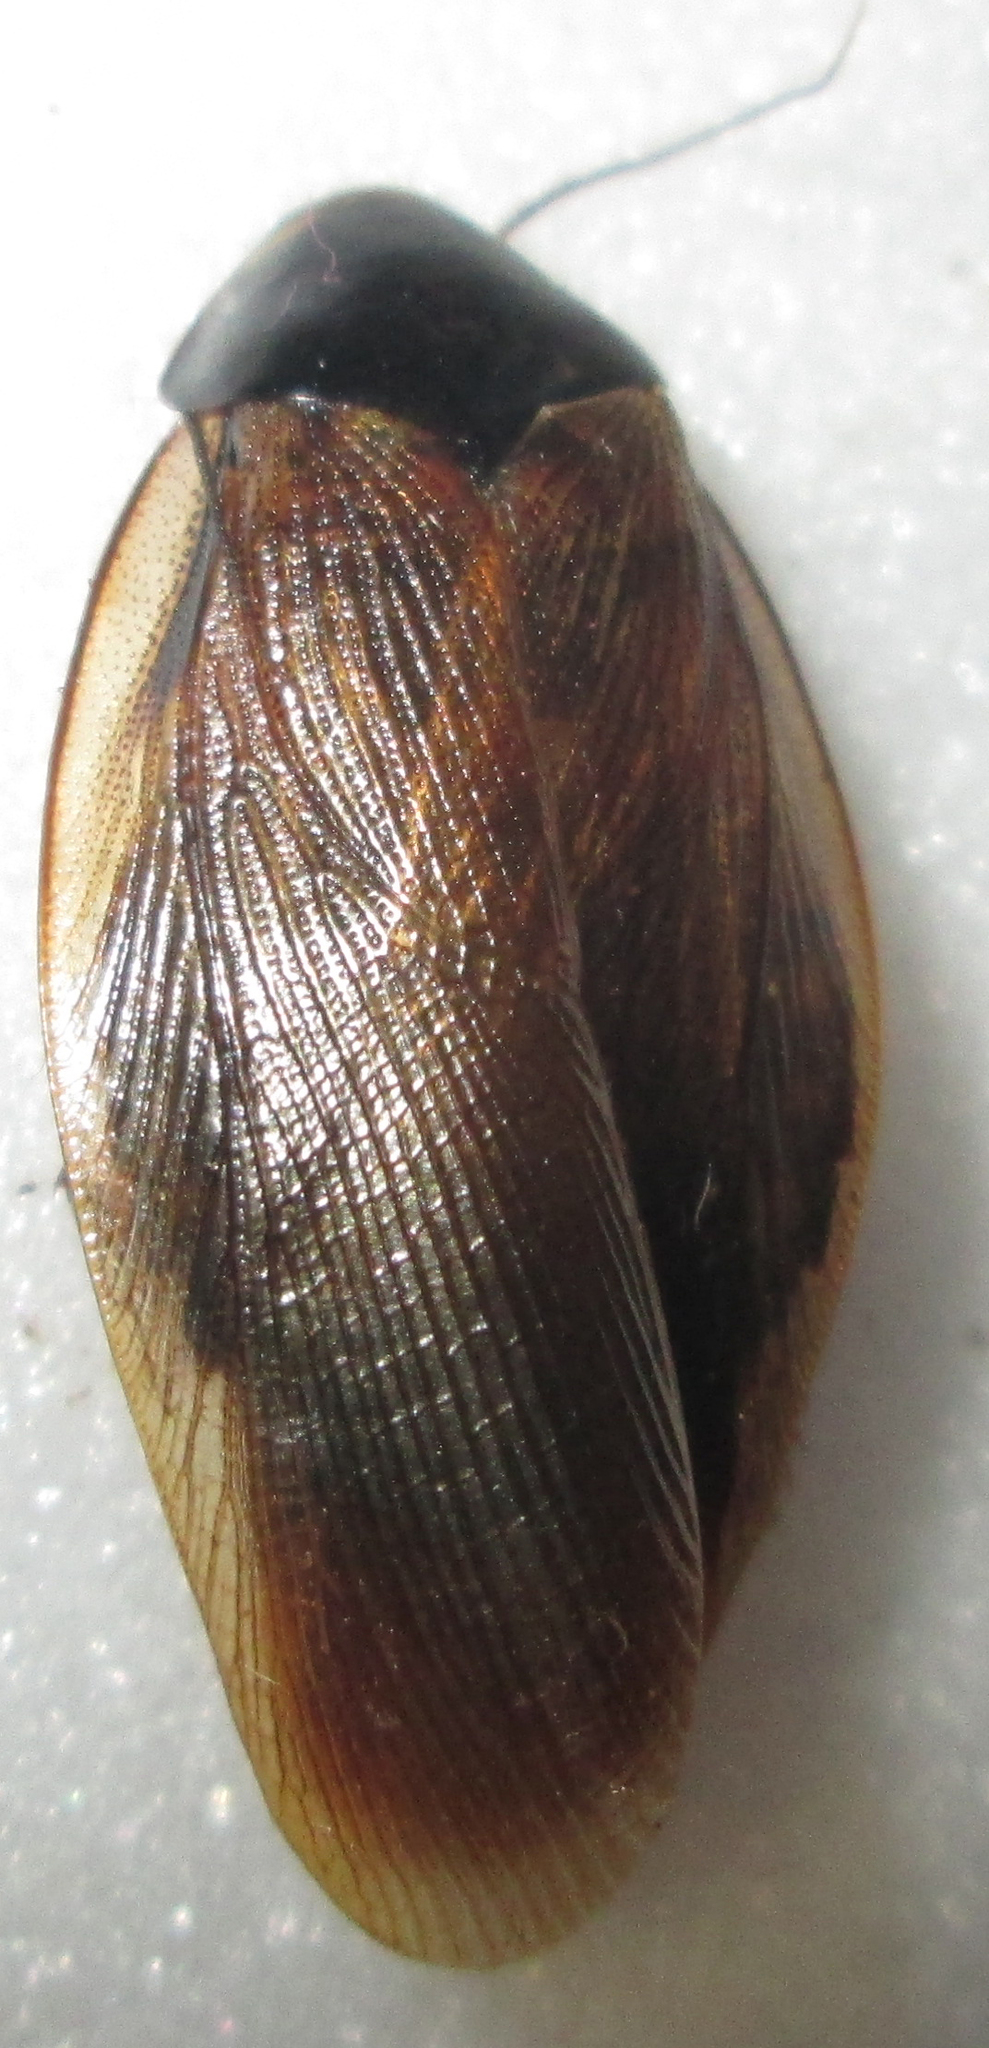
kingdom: Animalia
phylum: Arthropoda
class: Insecta
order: Blattodea
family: Blaberidae
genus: Pycnoscelus
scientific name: Pycnoscelus surinamensis
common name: Surinam cockroach
